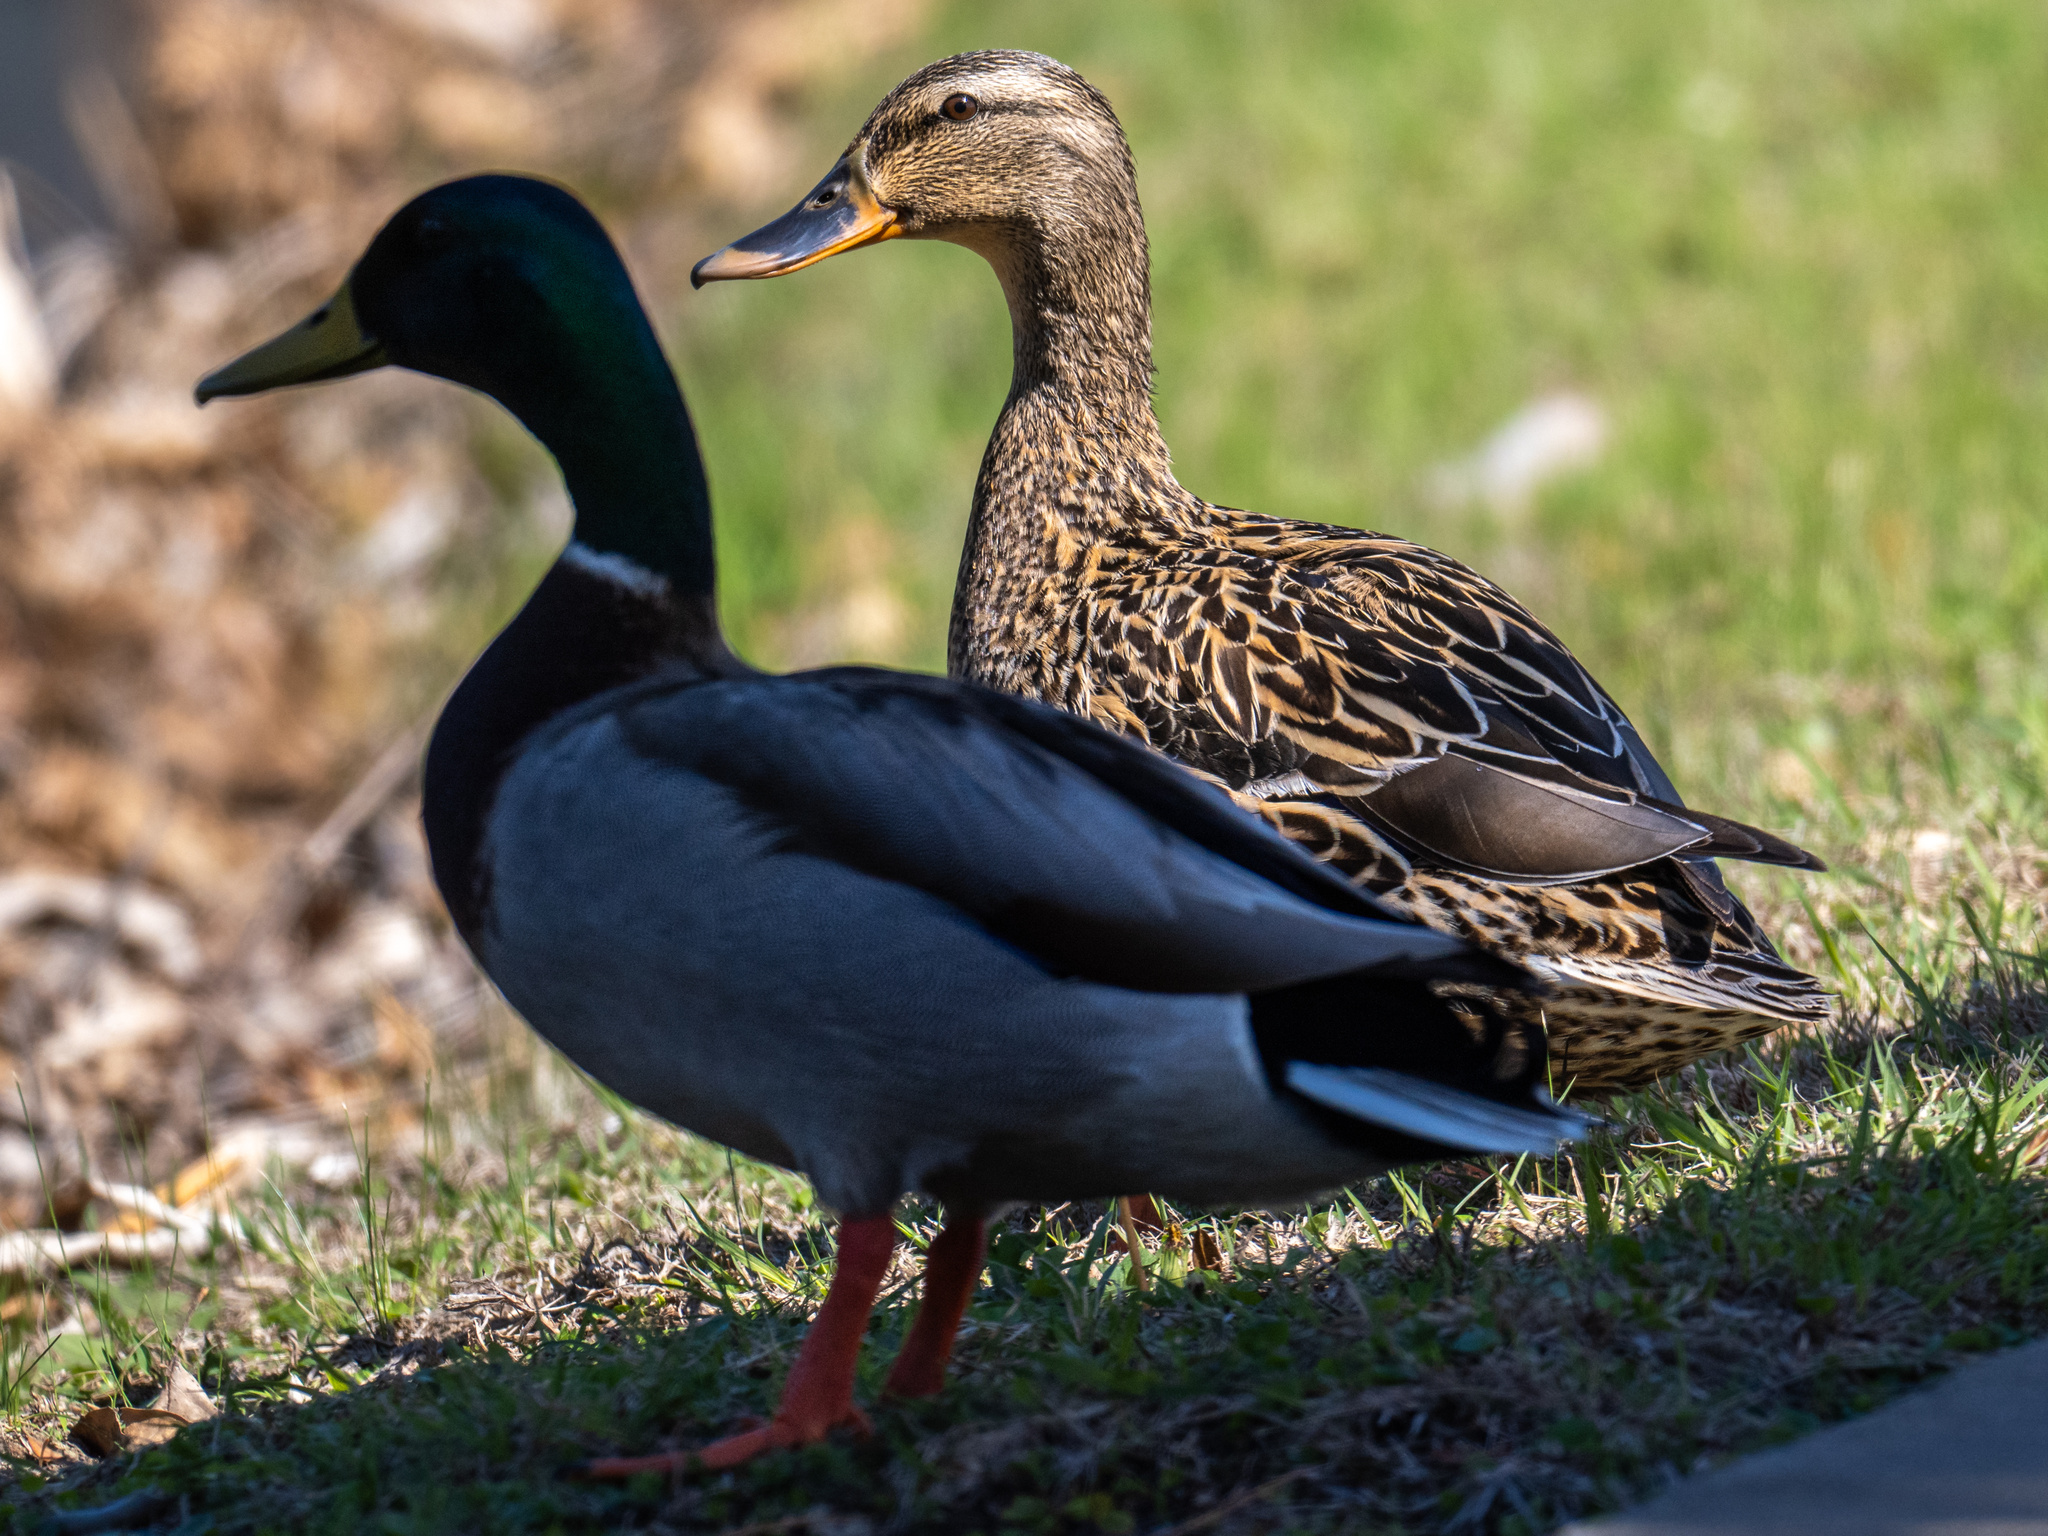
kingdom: Animalia
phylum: Chordata
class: Aves
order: Anseriformes
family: Anatidae
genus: Anas
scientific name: Anas platyrhynchos
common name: Mallard
